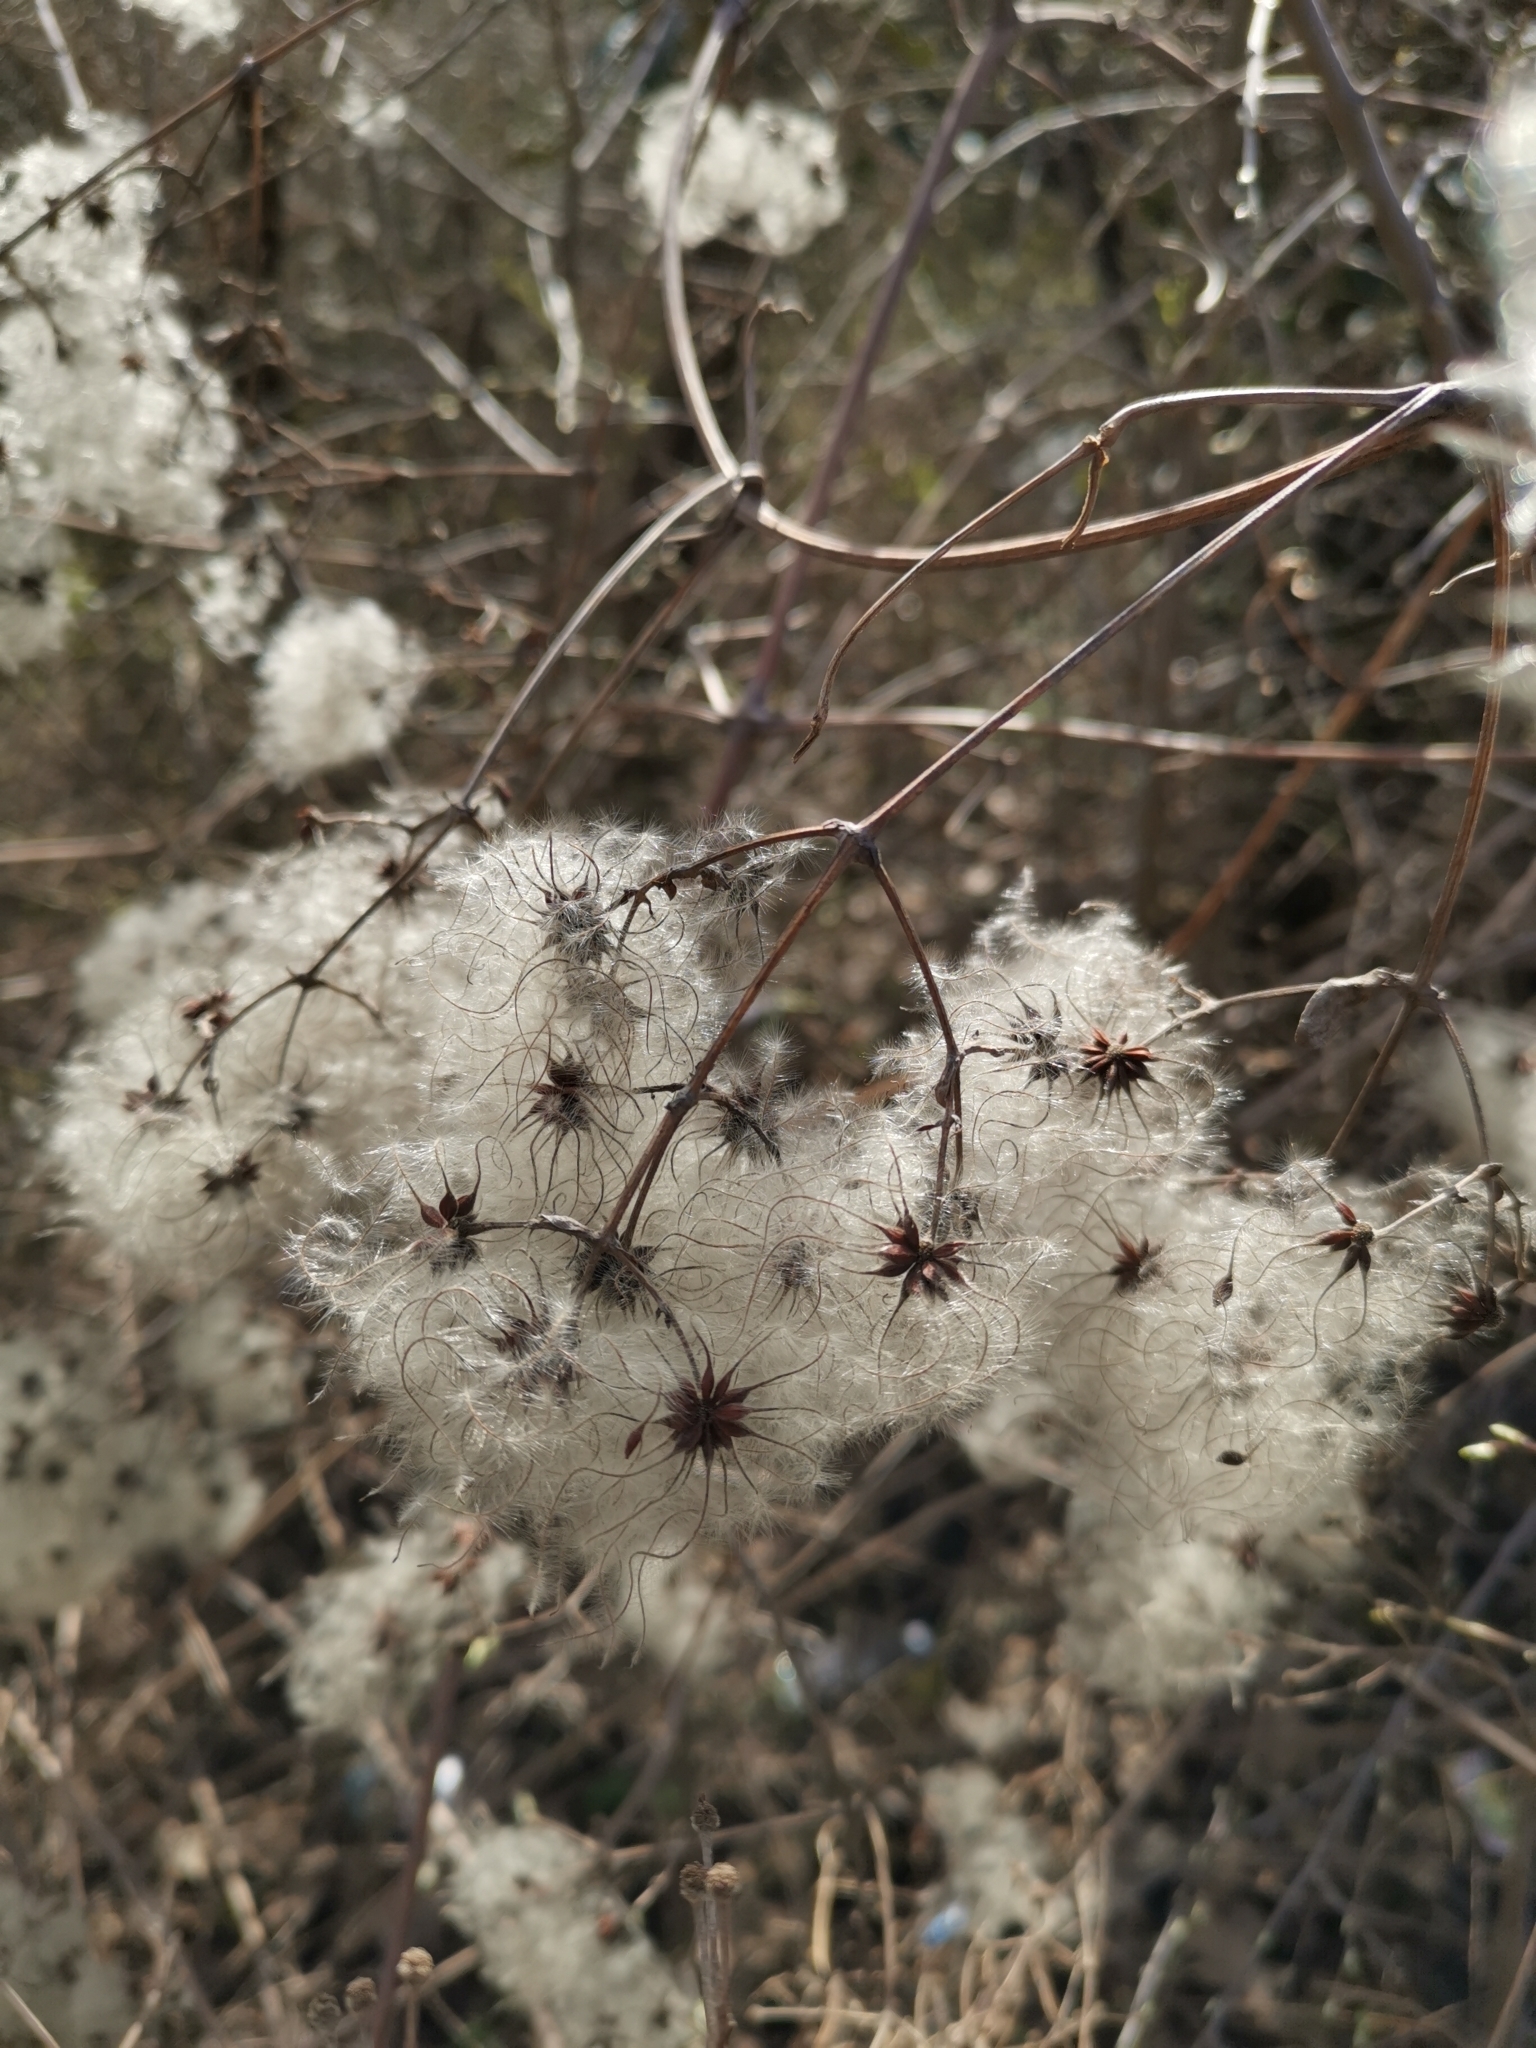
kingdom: Plantae
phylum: Tracheophyta
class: Magnoliopsida
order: Ranunculales
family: Ranunculaceae
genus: Clematis
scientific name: Clematis vitalba
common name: Evergreen clematis
